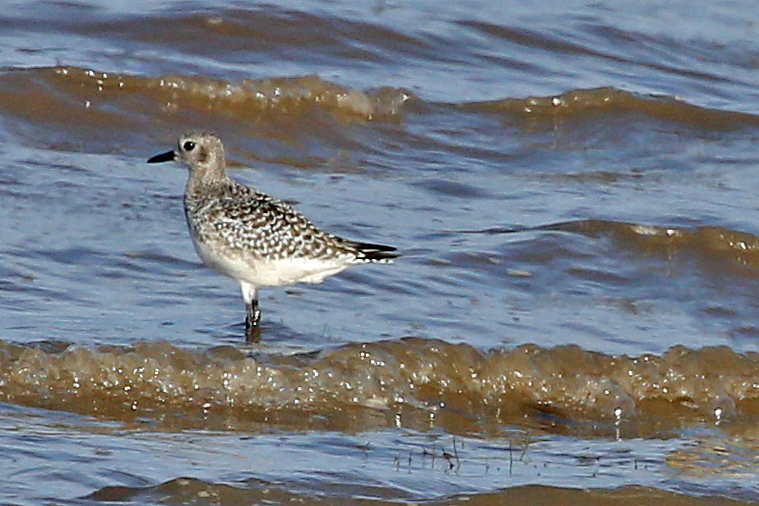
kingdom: Animalia
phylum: Chordata
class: Aves
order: Charadriiformes
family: Charadriidae
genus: Pluvialis
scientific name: Pluvialis squatarola
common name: Grey plover
